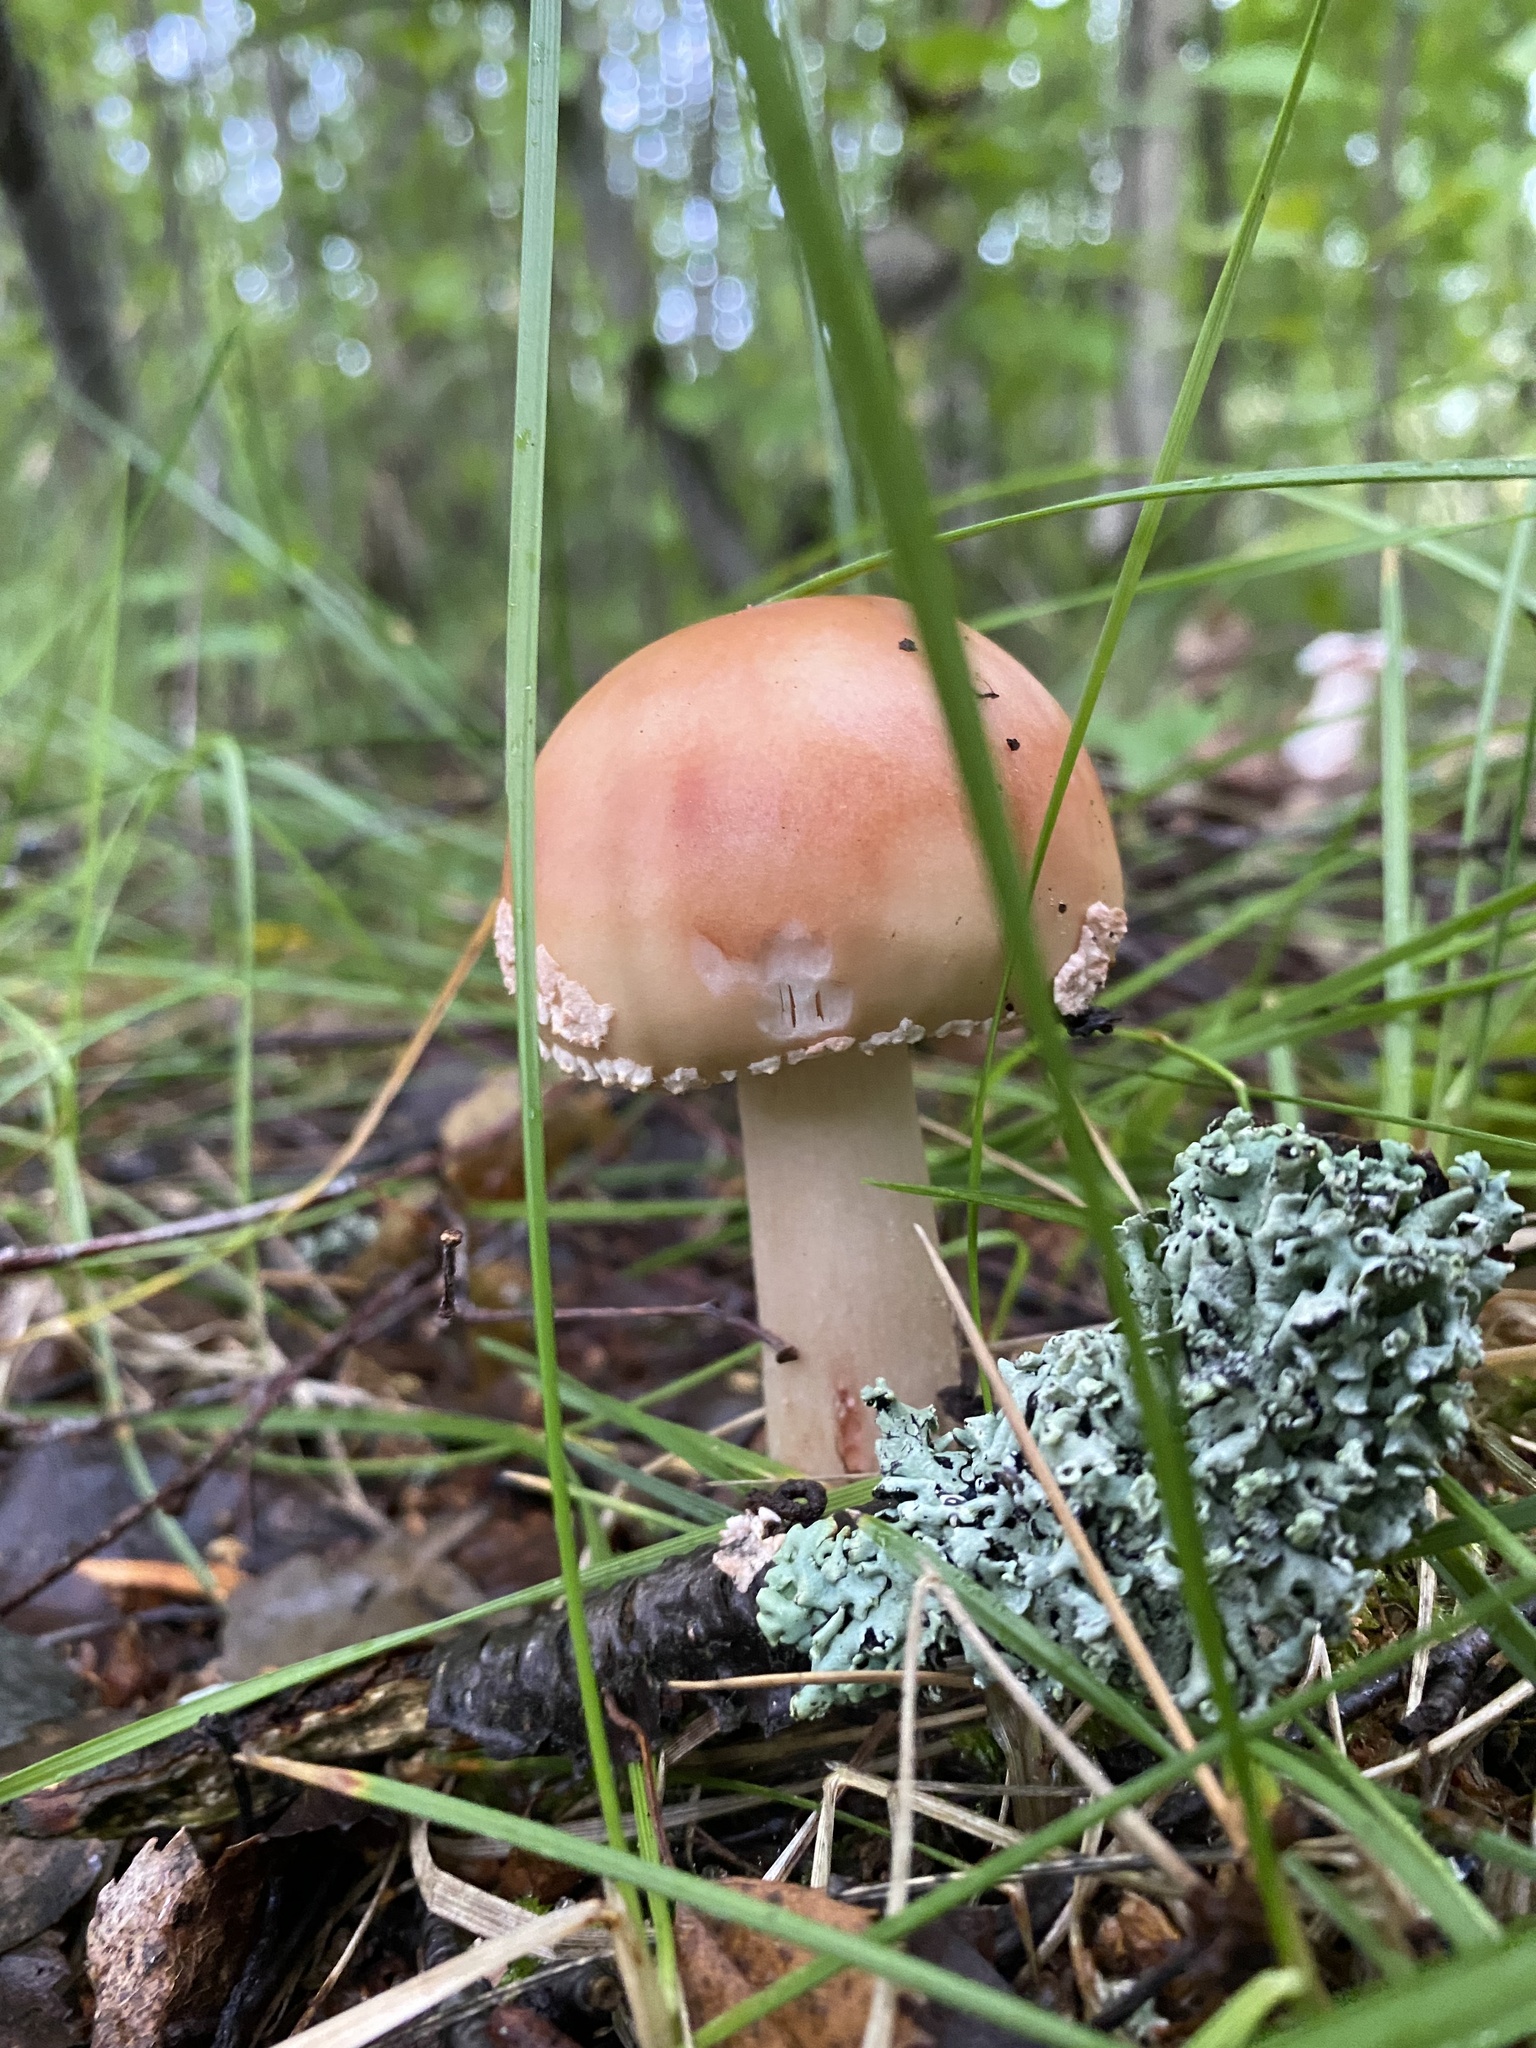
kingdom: Fungi
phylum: Basidiomycota
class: Agaricomycetes
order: Agaricales
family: Amanitaceae
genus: Amanita
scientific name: Amanita rubescens
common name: Blusher
